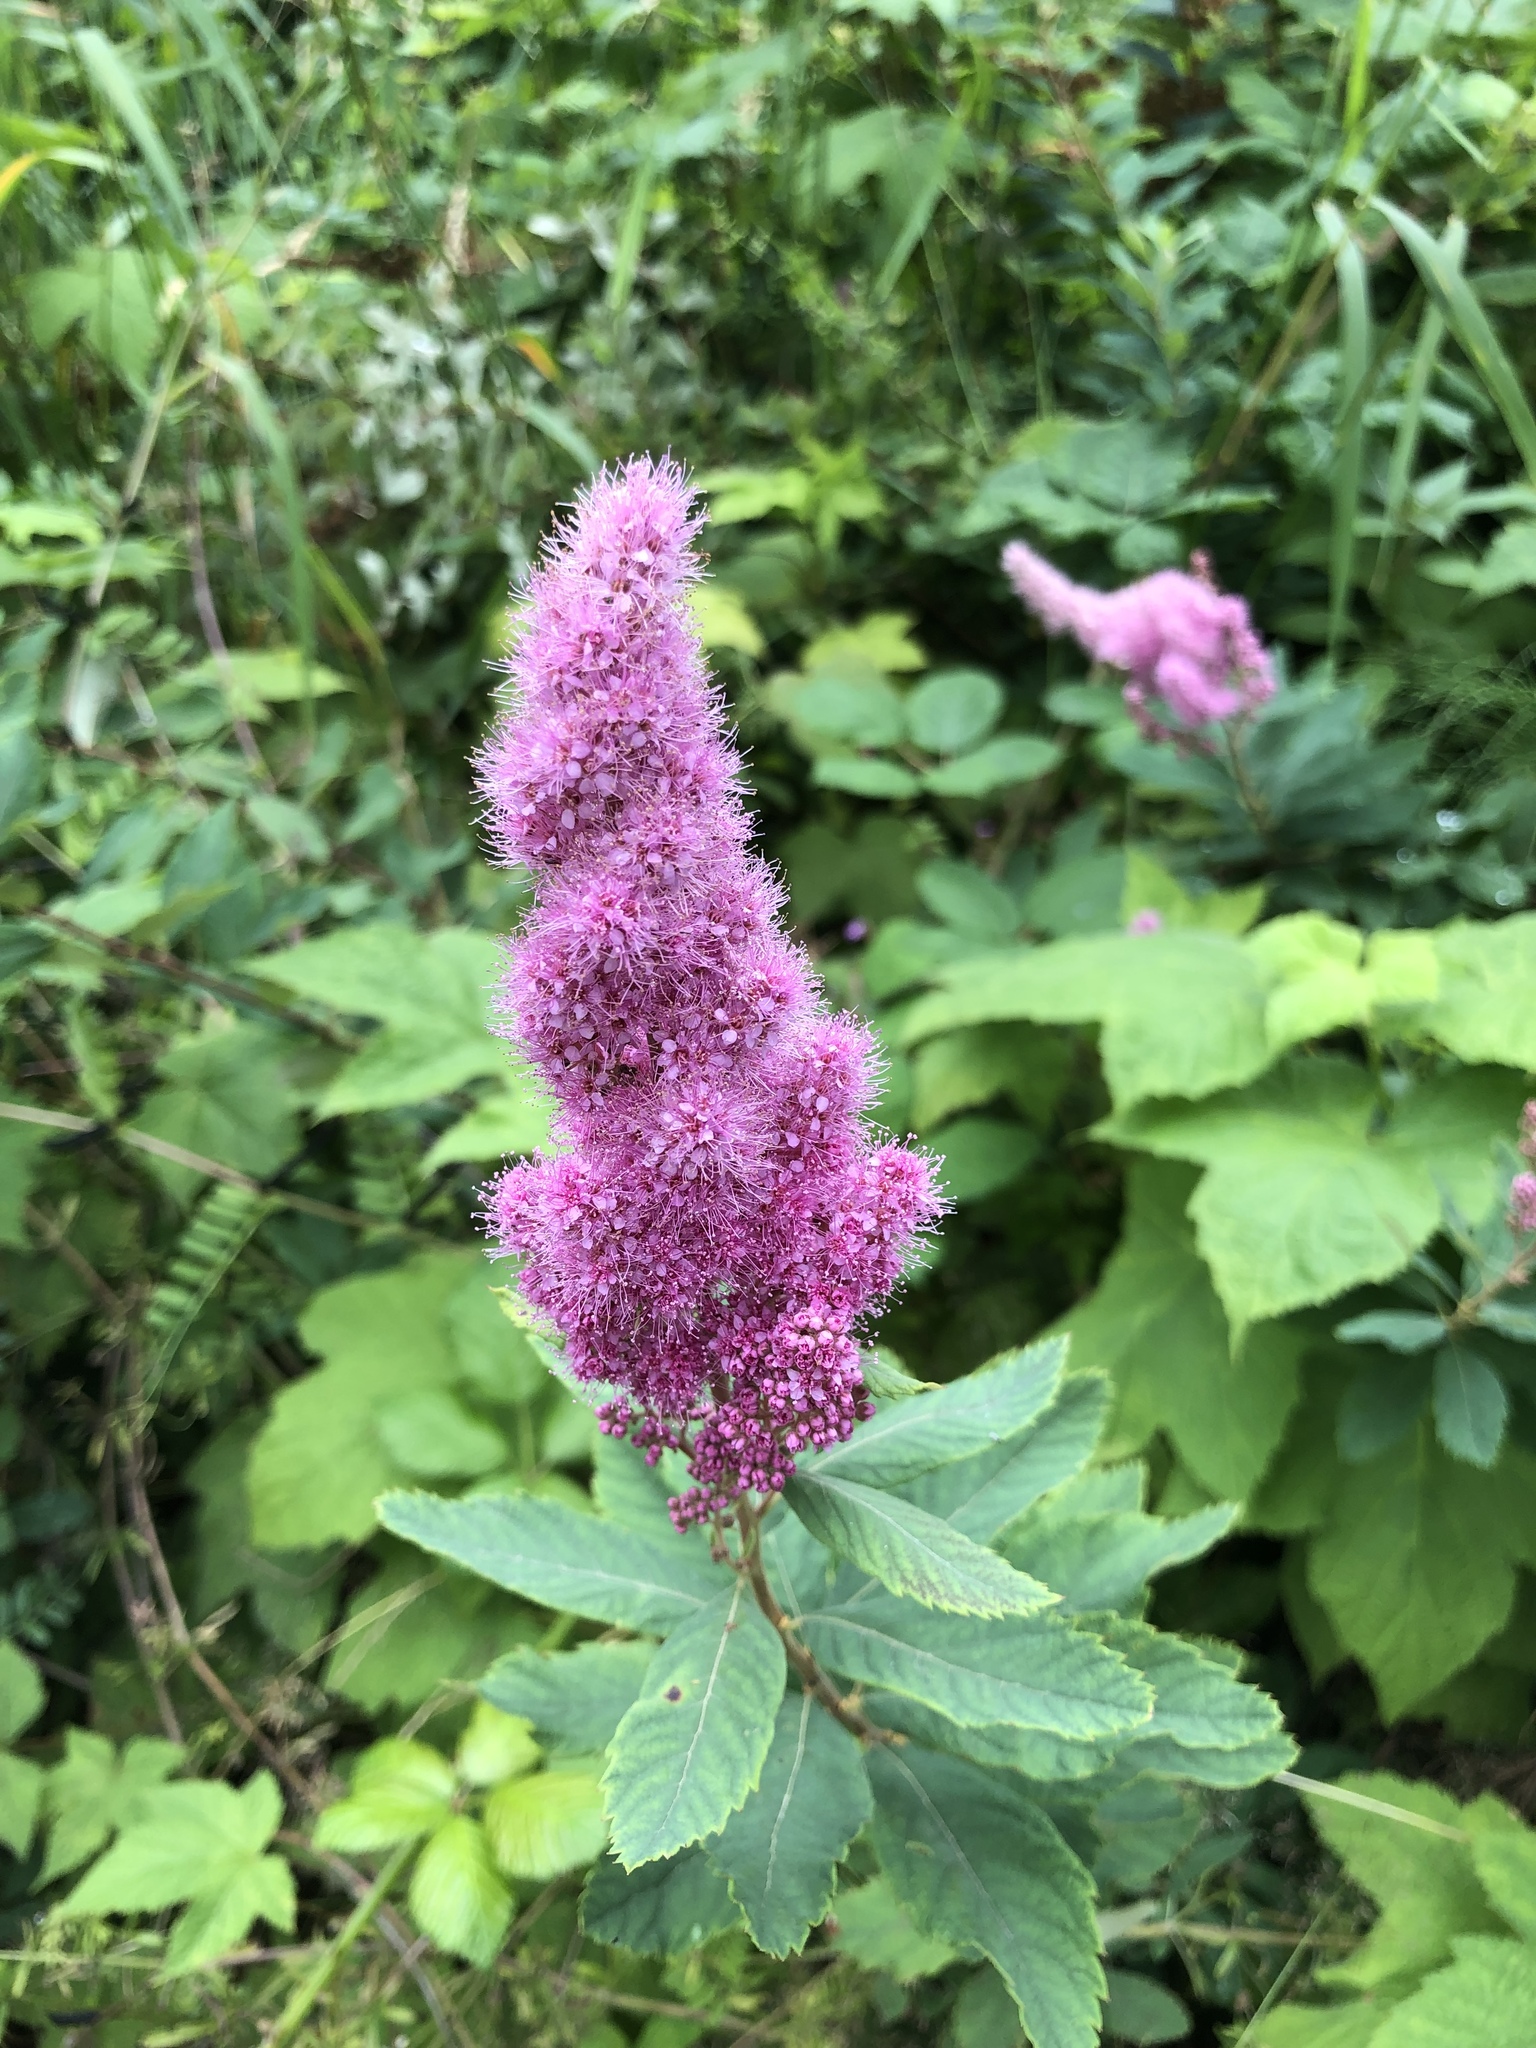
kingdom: Plantae
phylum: Tracheophyta
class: Magnoliopsida
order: Rosales
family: Rosaceae
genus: Spiraea
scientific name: Spiraea douglasii
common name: Steeplebush
